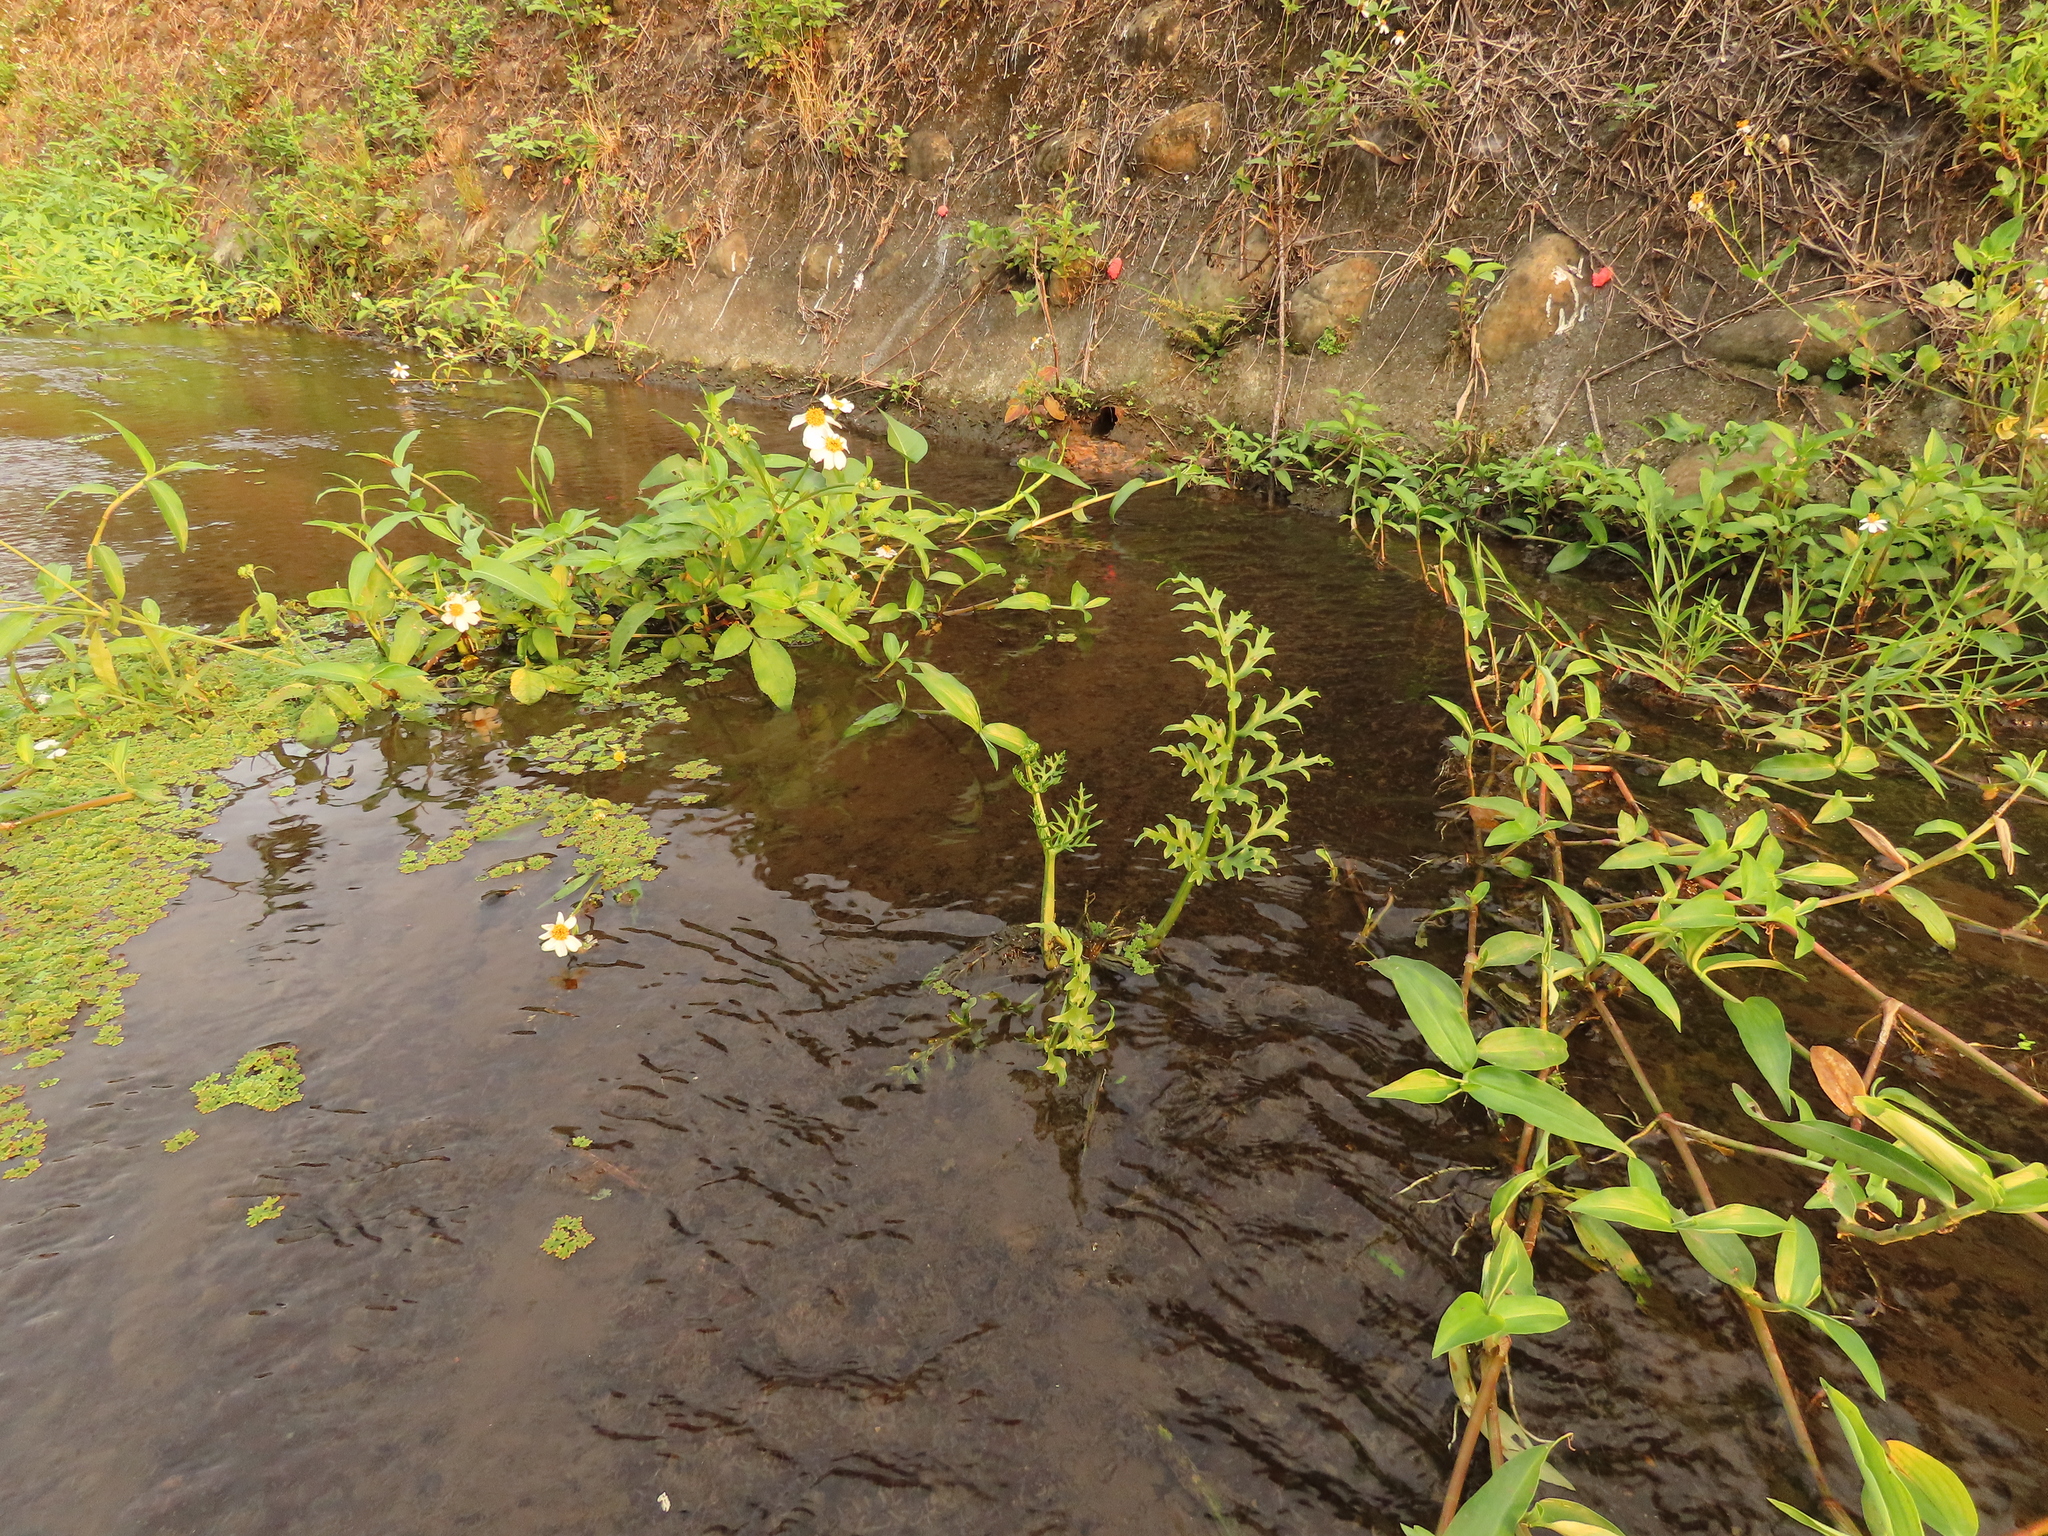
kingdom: Plantae
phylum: Tracheophyta
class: Polypodiopsida
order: Polypodiales
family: Pteridaceae
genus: Ceratopteris
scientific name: Ceratopteris thalictroides
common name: Water fern
